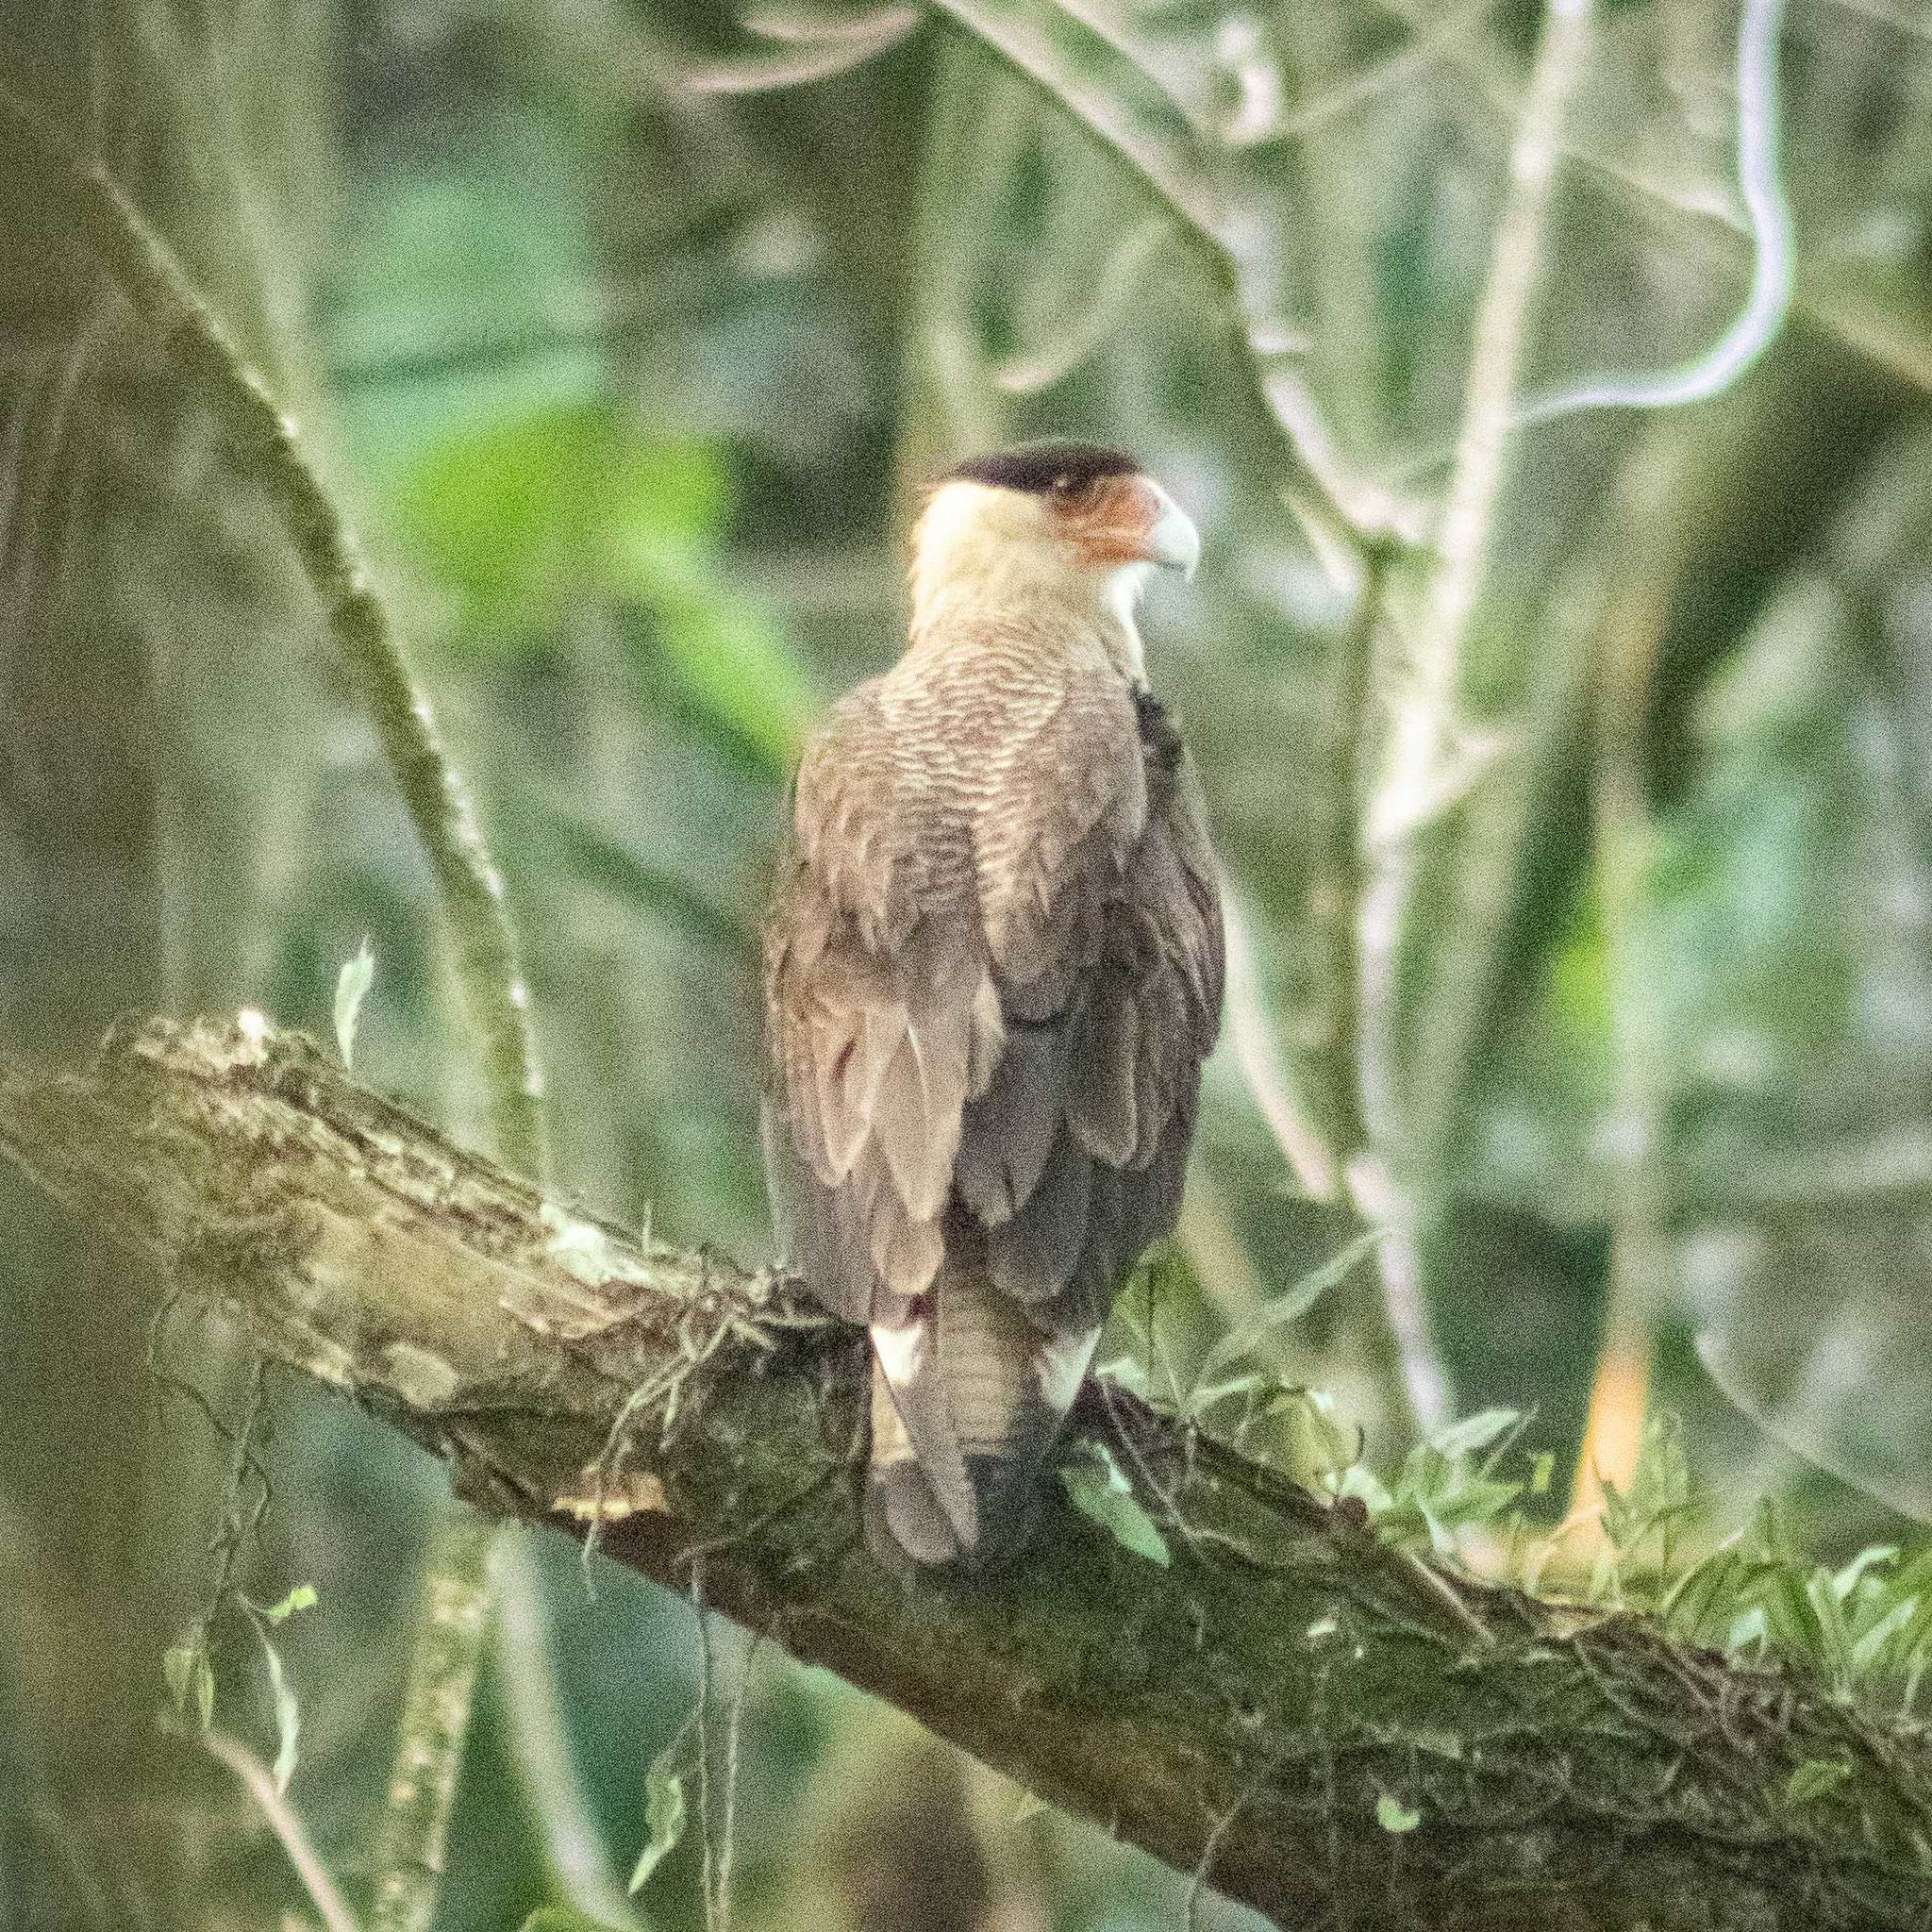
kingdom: Animalia
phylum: Chordata
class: Aves
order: Falconiformes
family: Falconidae
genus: Caracara
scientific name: Caracara plancus
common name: Southern caracara
